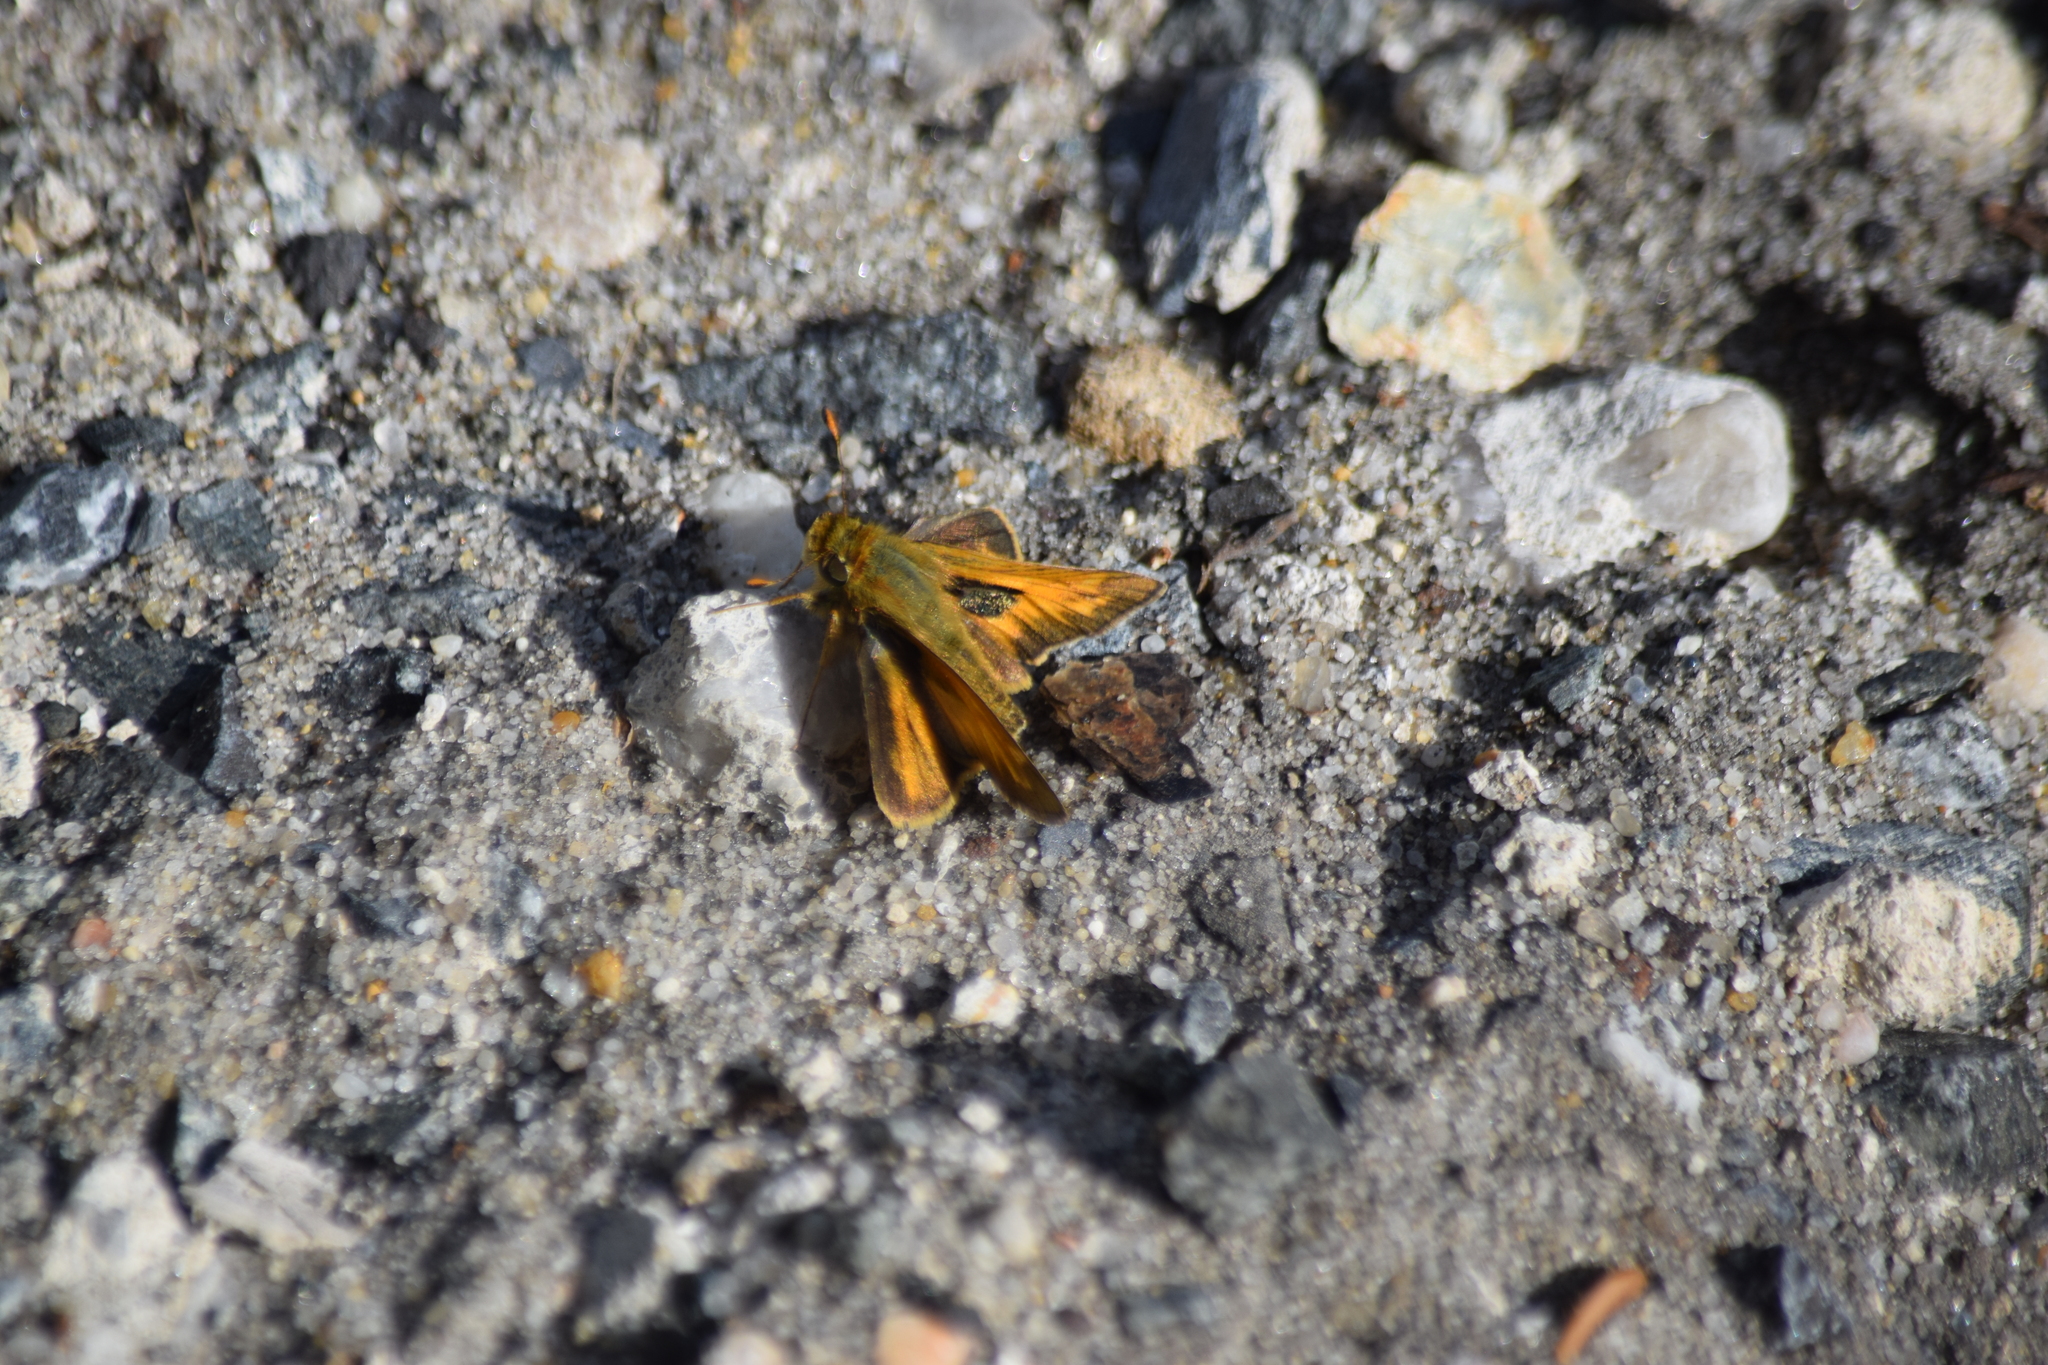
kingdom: Animalia
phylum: Arthropoda
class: Insecta
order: Lepidoptera
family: Hesperiidae
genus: Atalopedes
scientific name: Atalopedes
